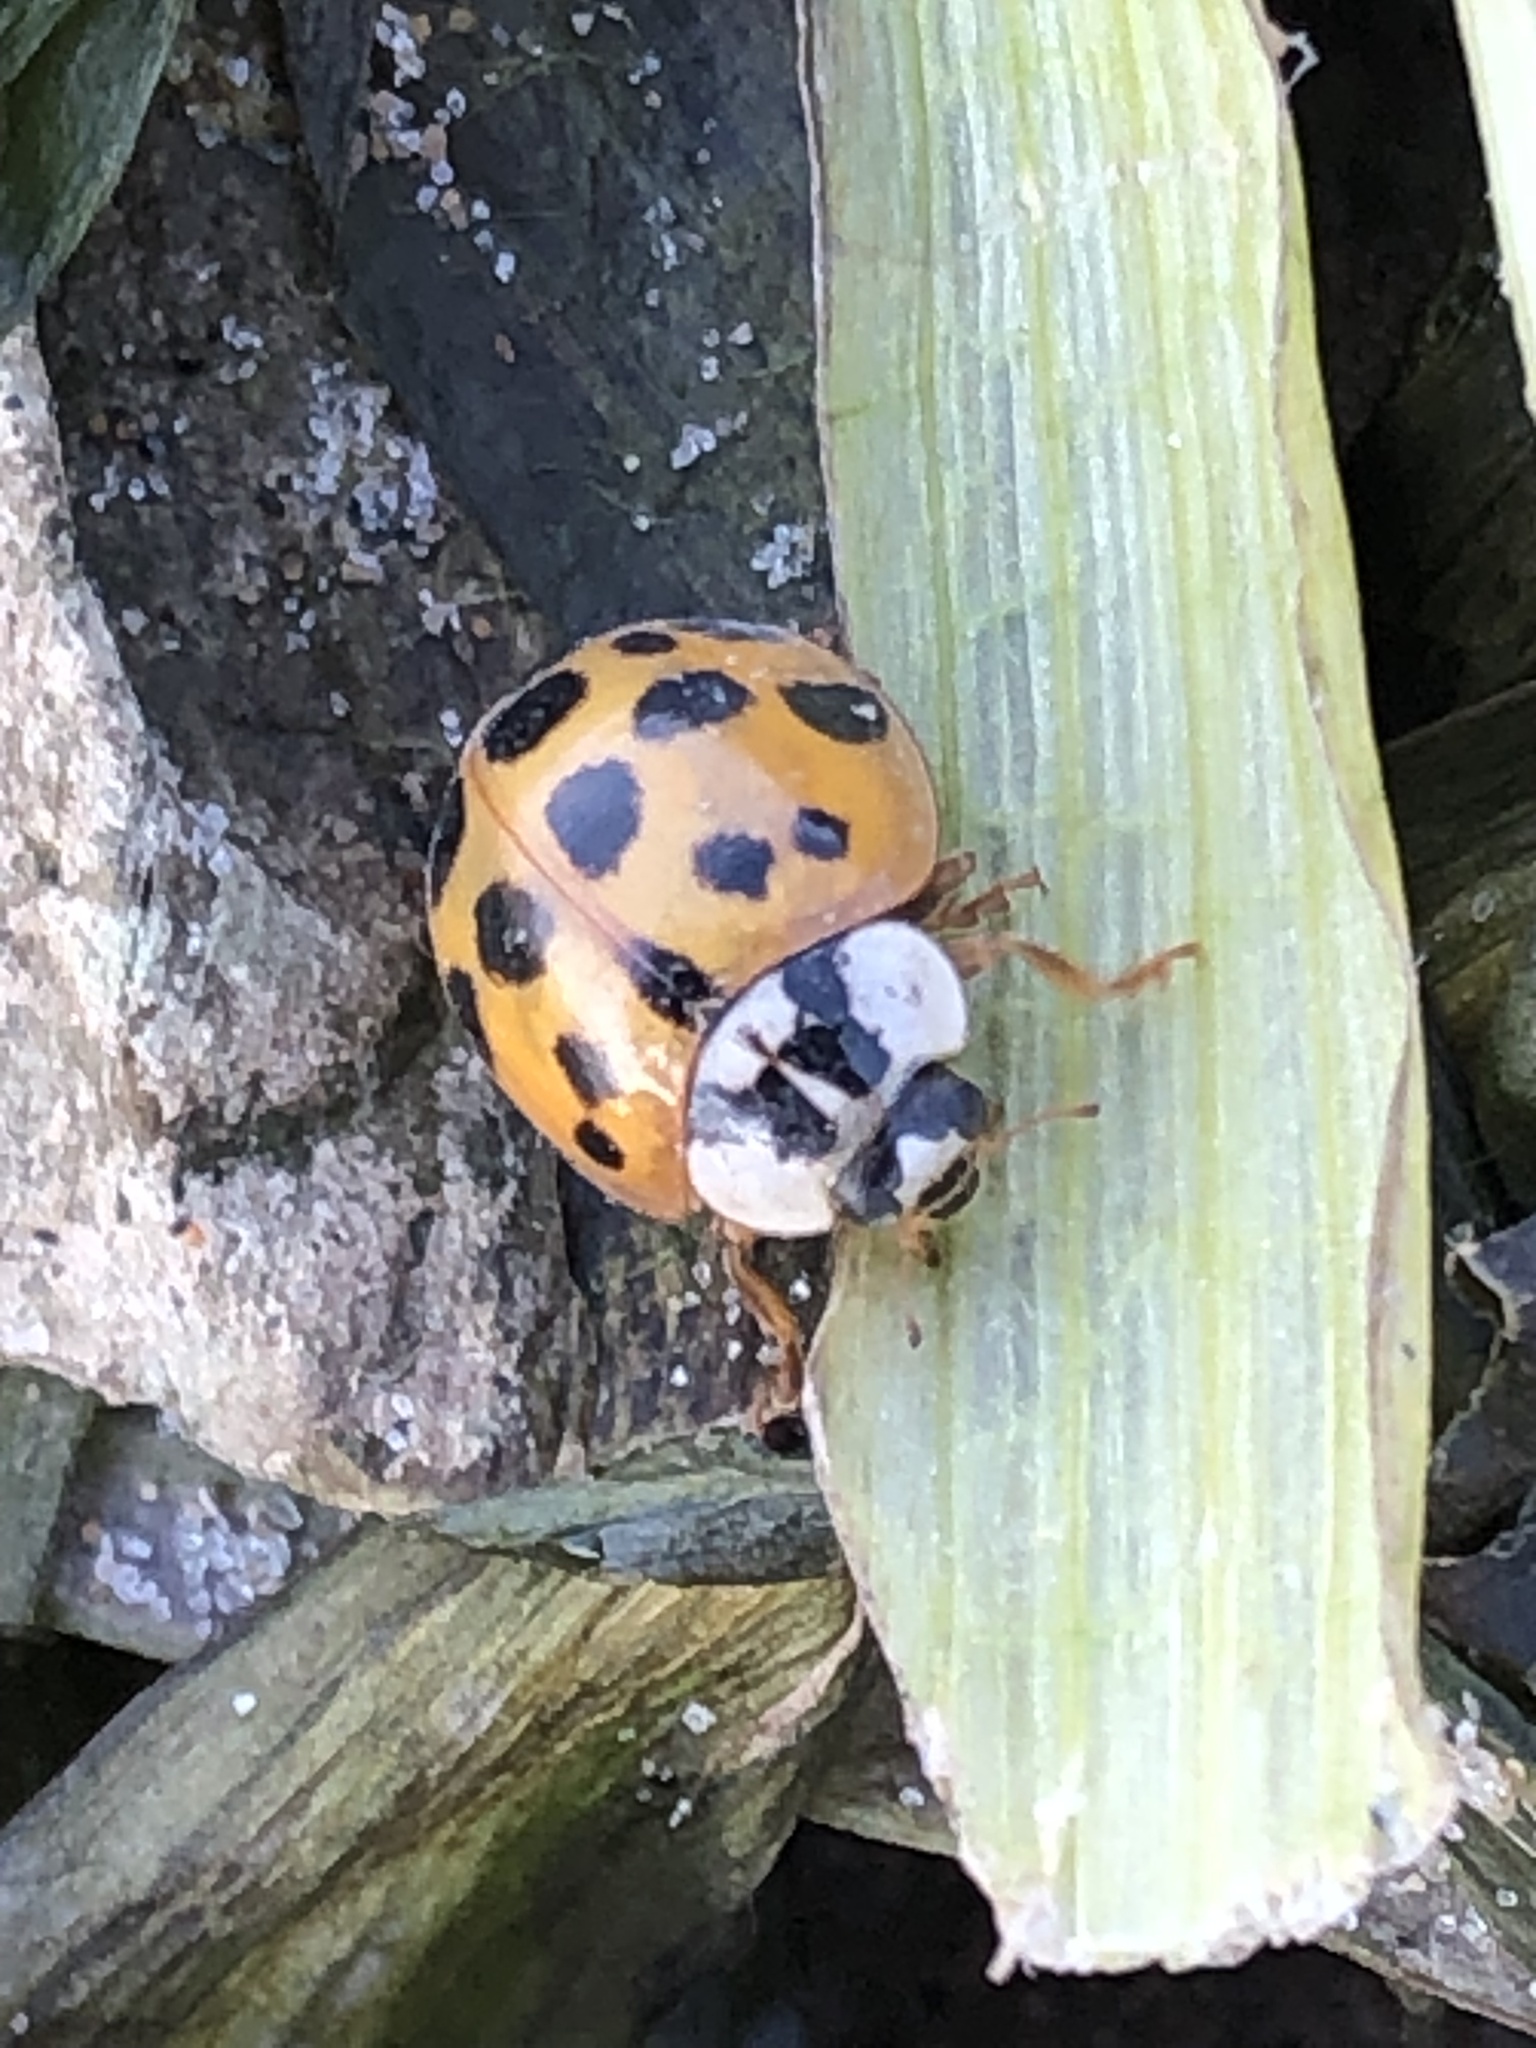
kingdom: Animalia
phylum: Arthropoda
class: Insecta
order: Coleoptera
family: Coccinellidae
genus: Harmonia
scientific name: Harmonia axyridis
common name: Harlequin ladybird
